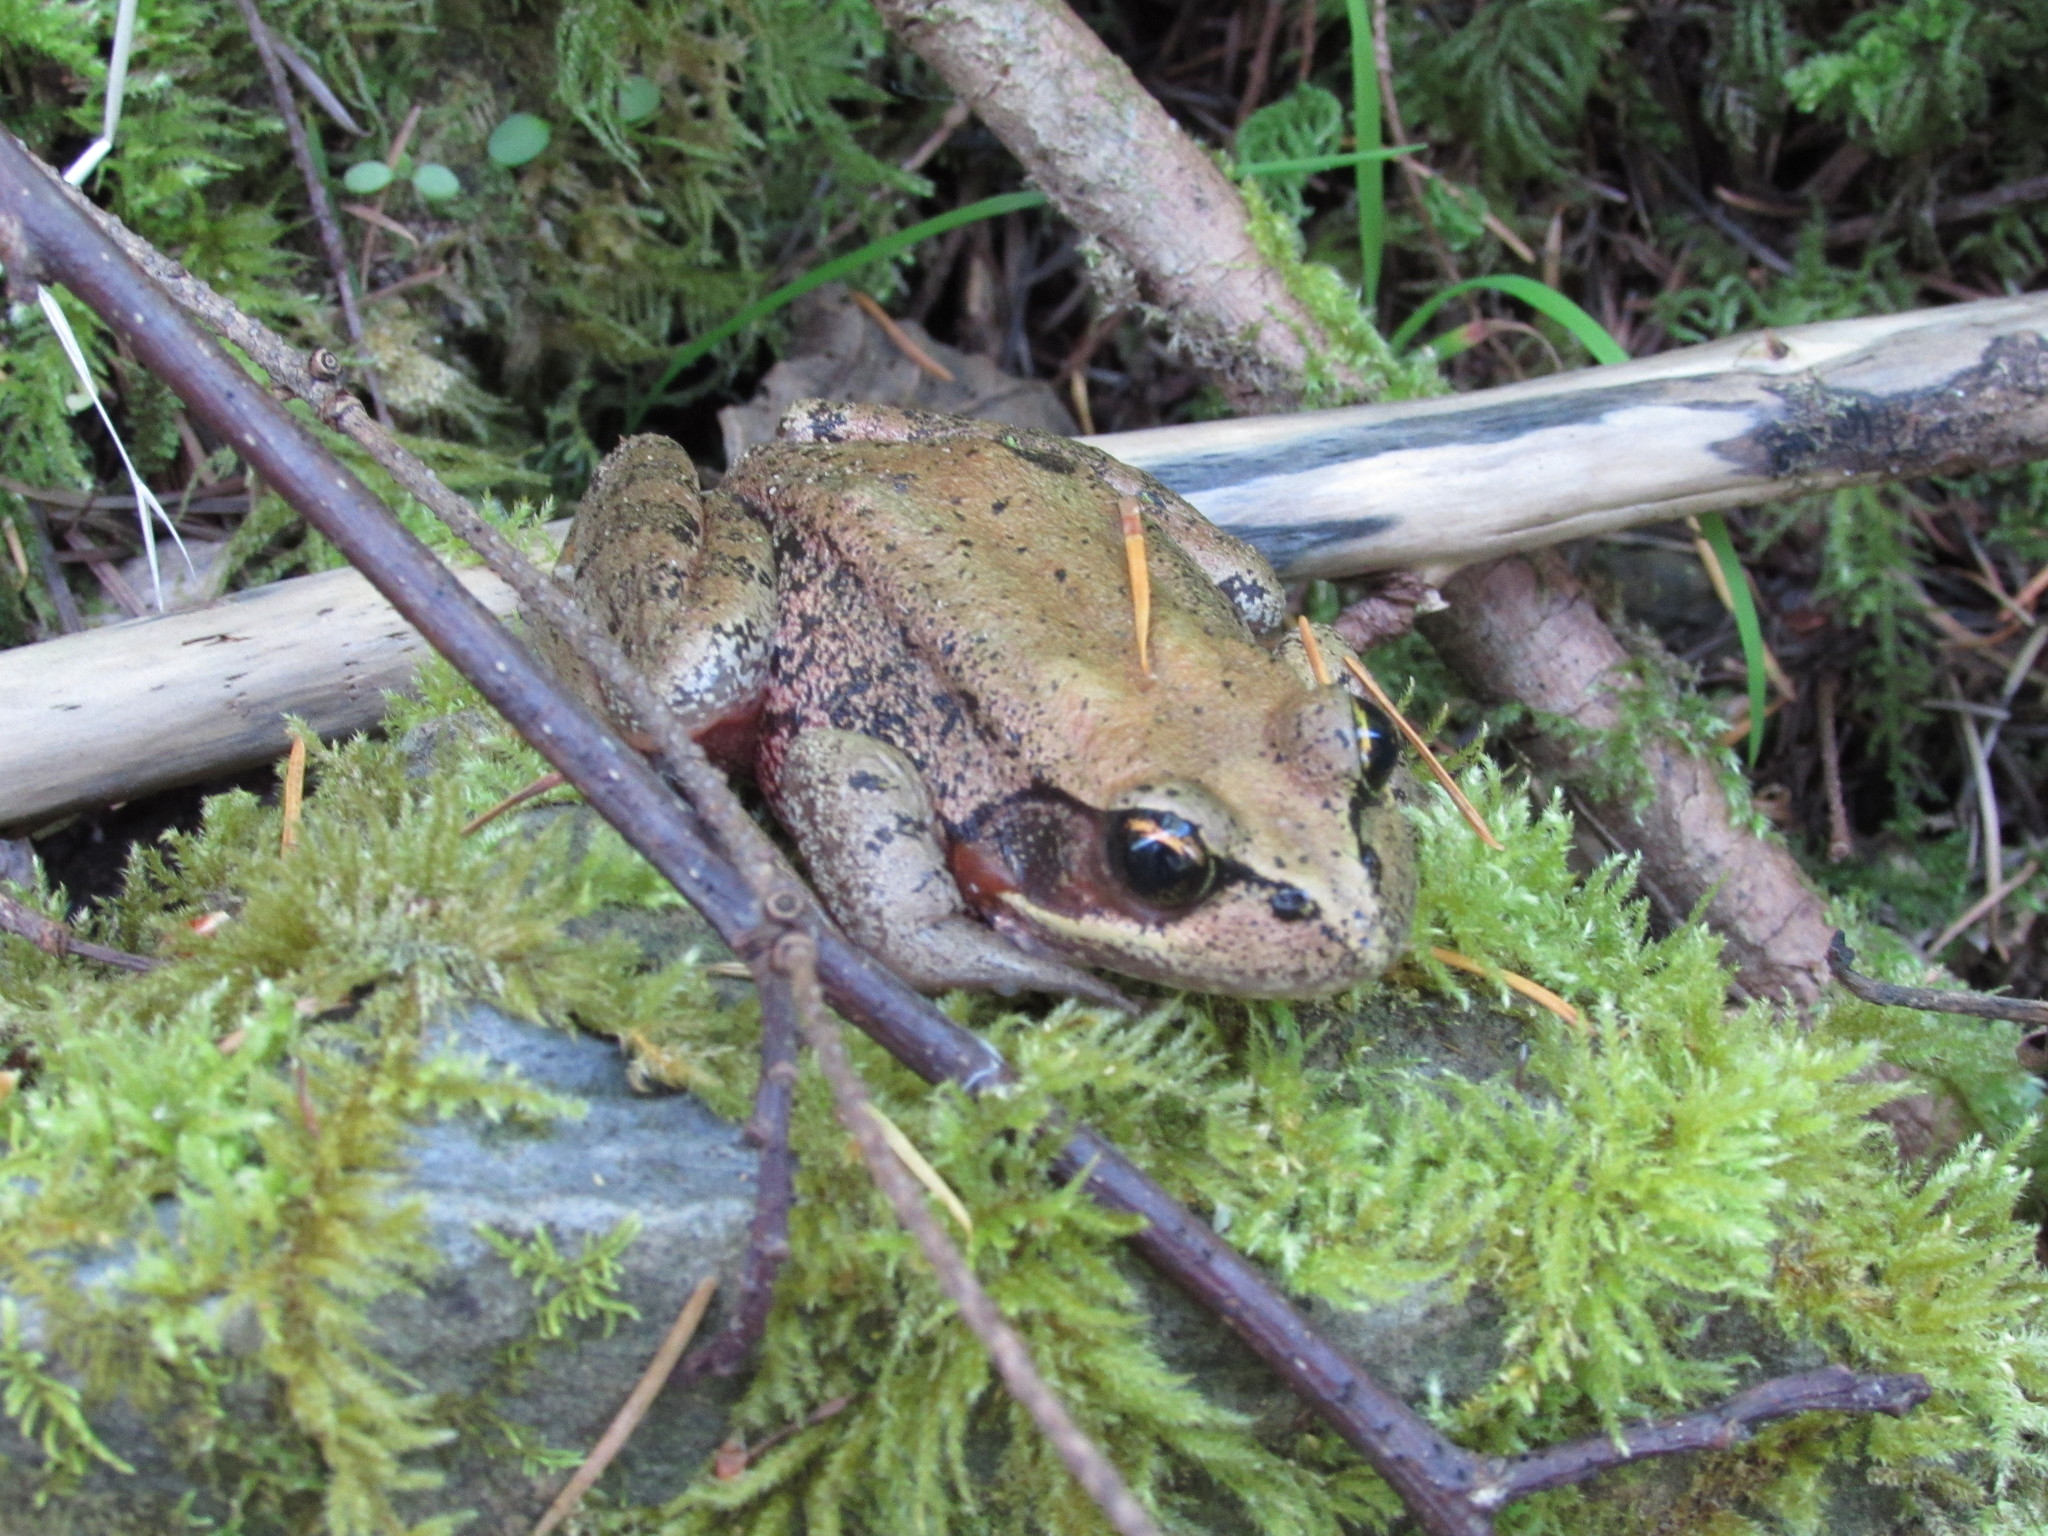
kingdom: Animalia
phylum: Chordata
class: Amphibia
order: Anura
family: Ranidae
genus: Rana
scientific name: Rana aurora
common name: Red-legged frog
